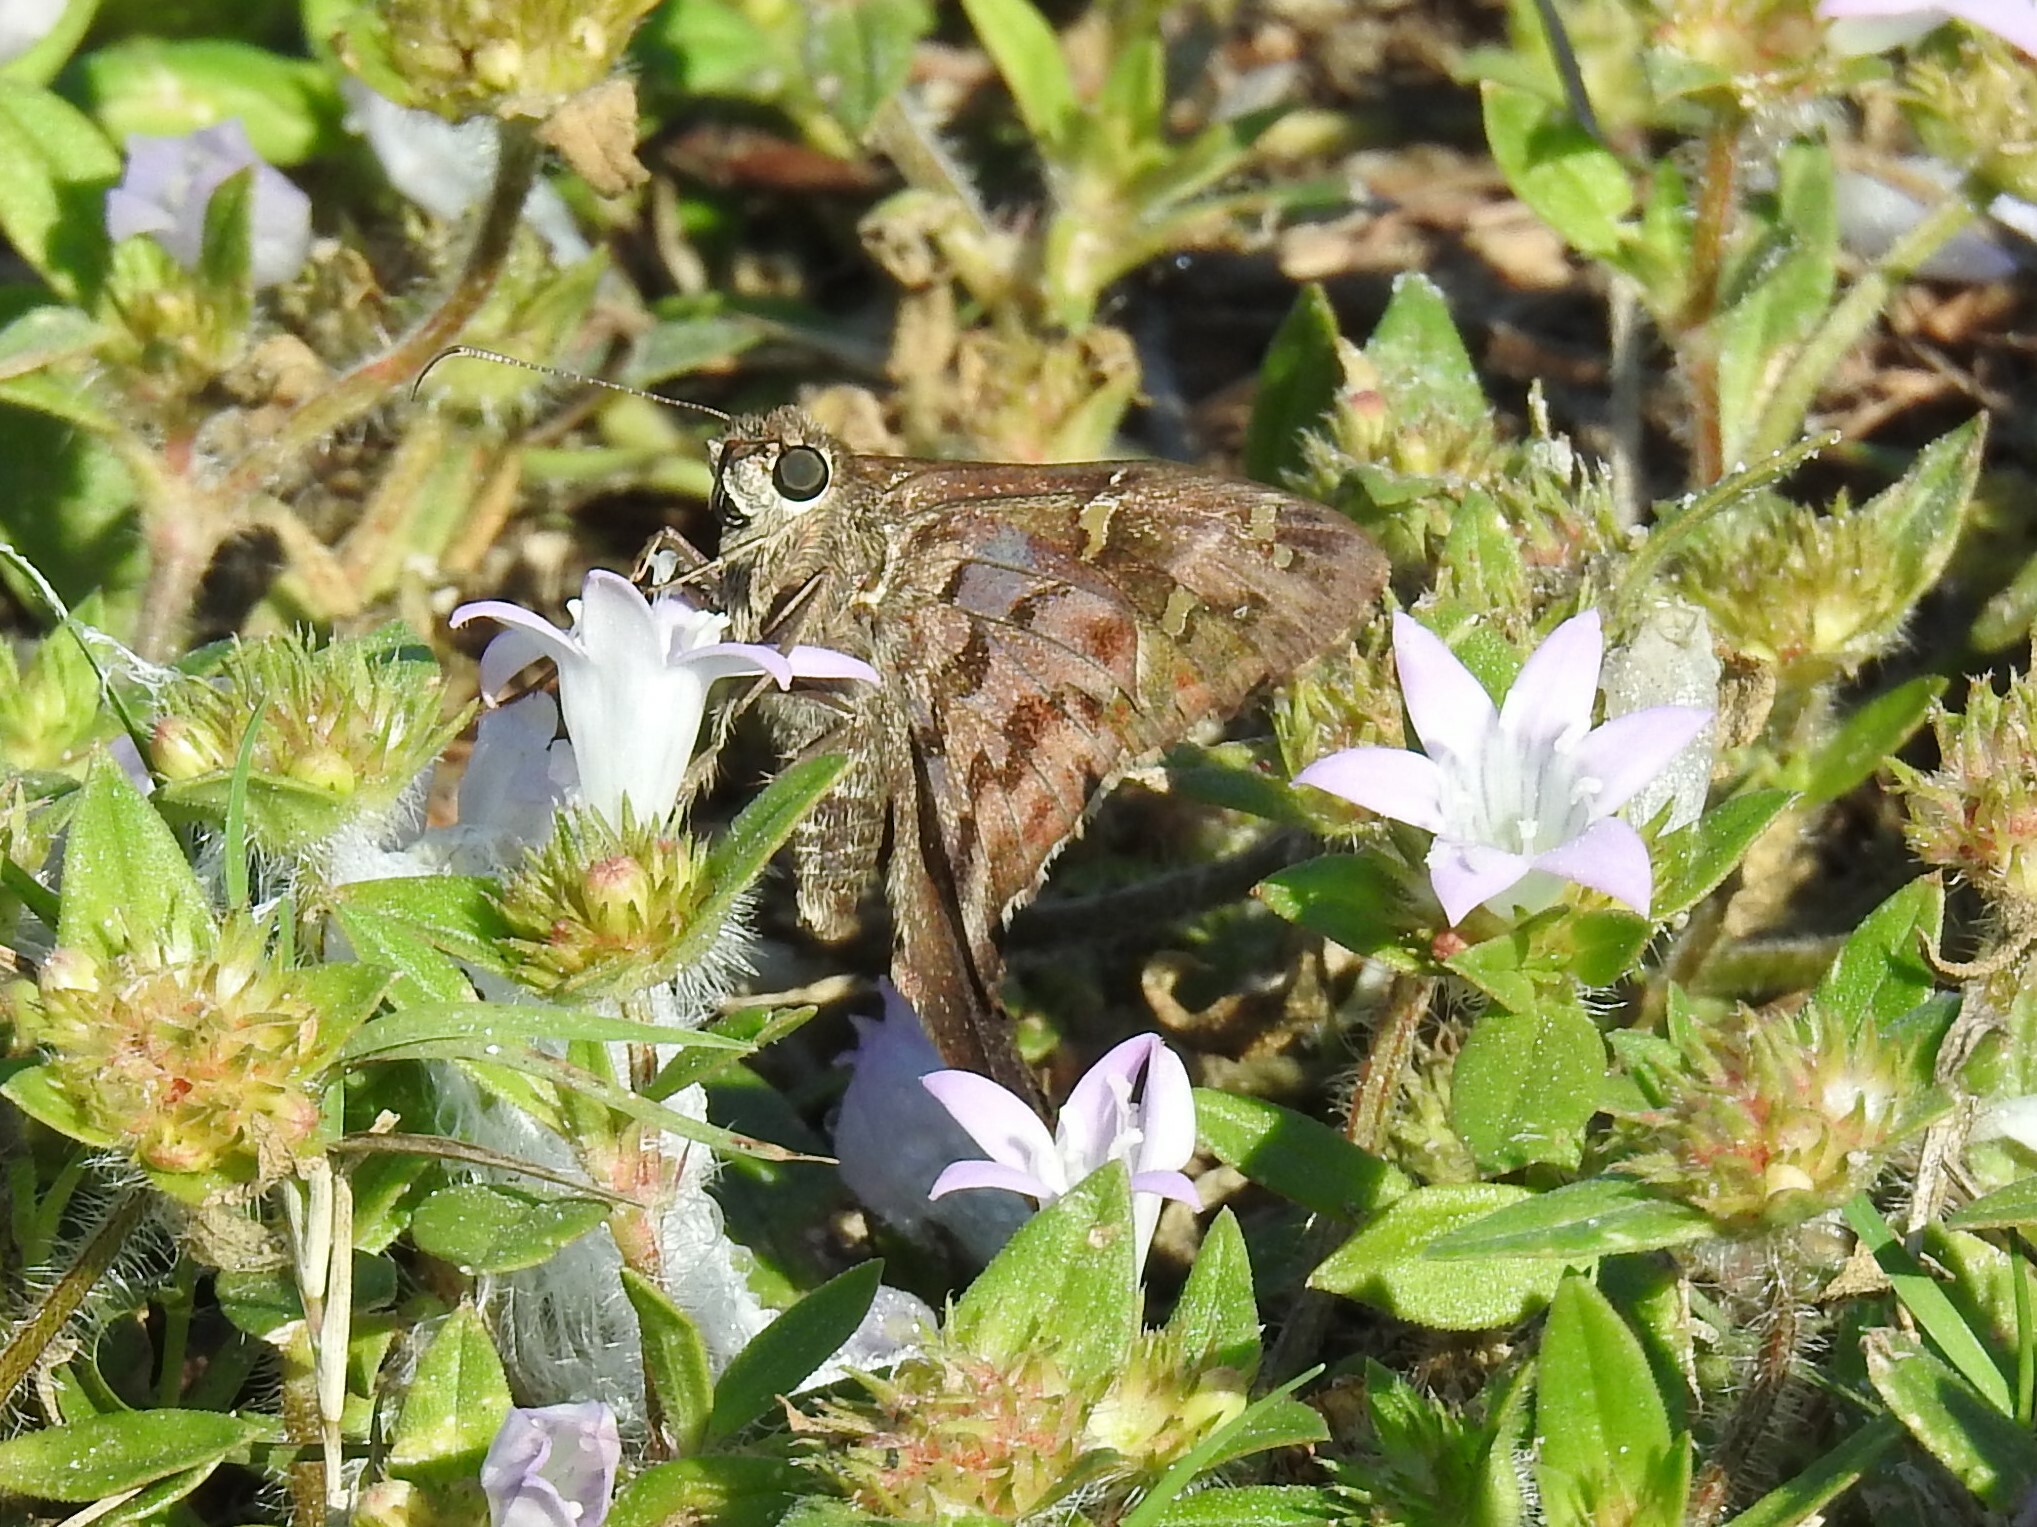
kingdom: Animalia
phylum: Arthropoda
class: Insecta
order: Lepidoptera
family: Hesperiidae
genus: Thorybes
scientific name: Thorybes
